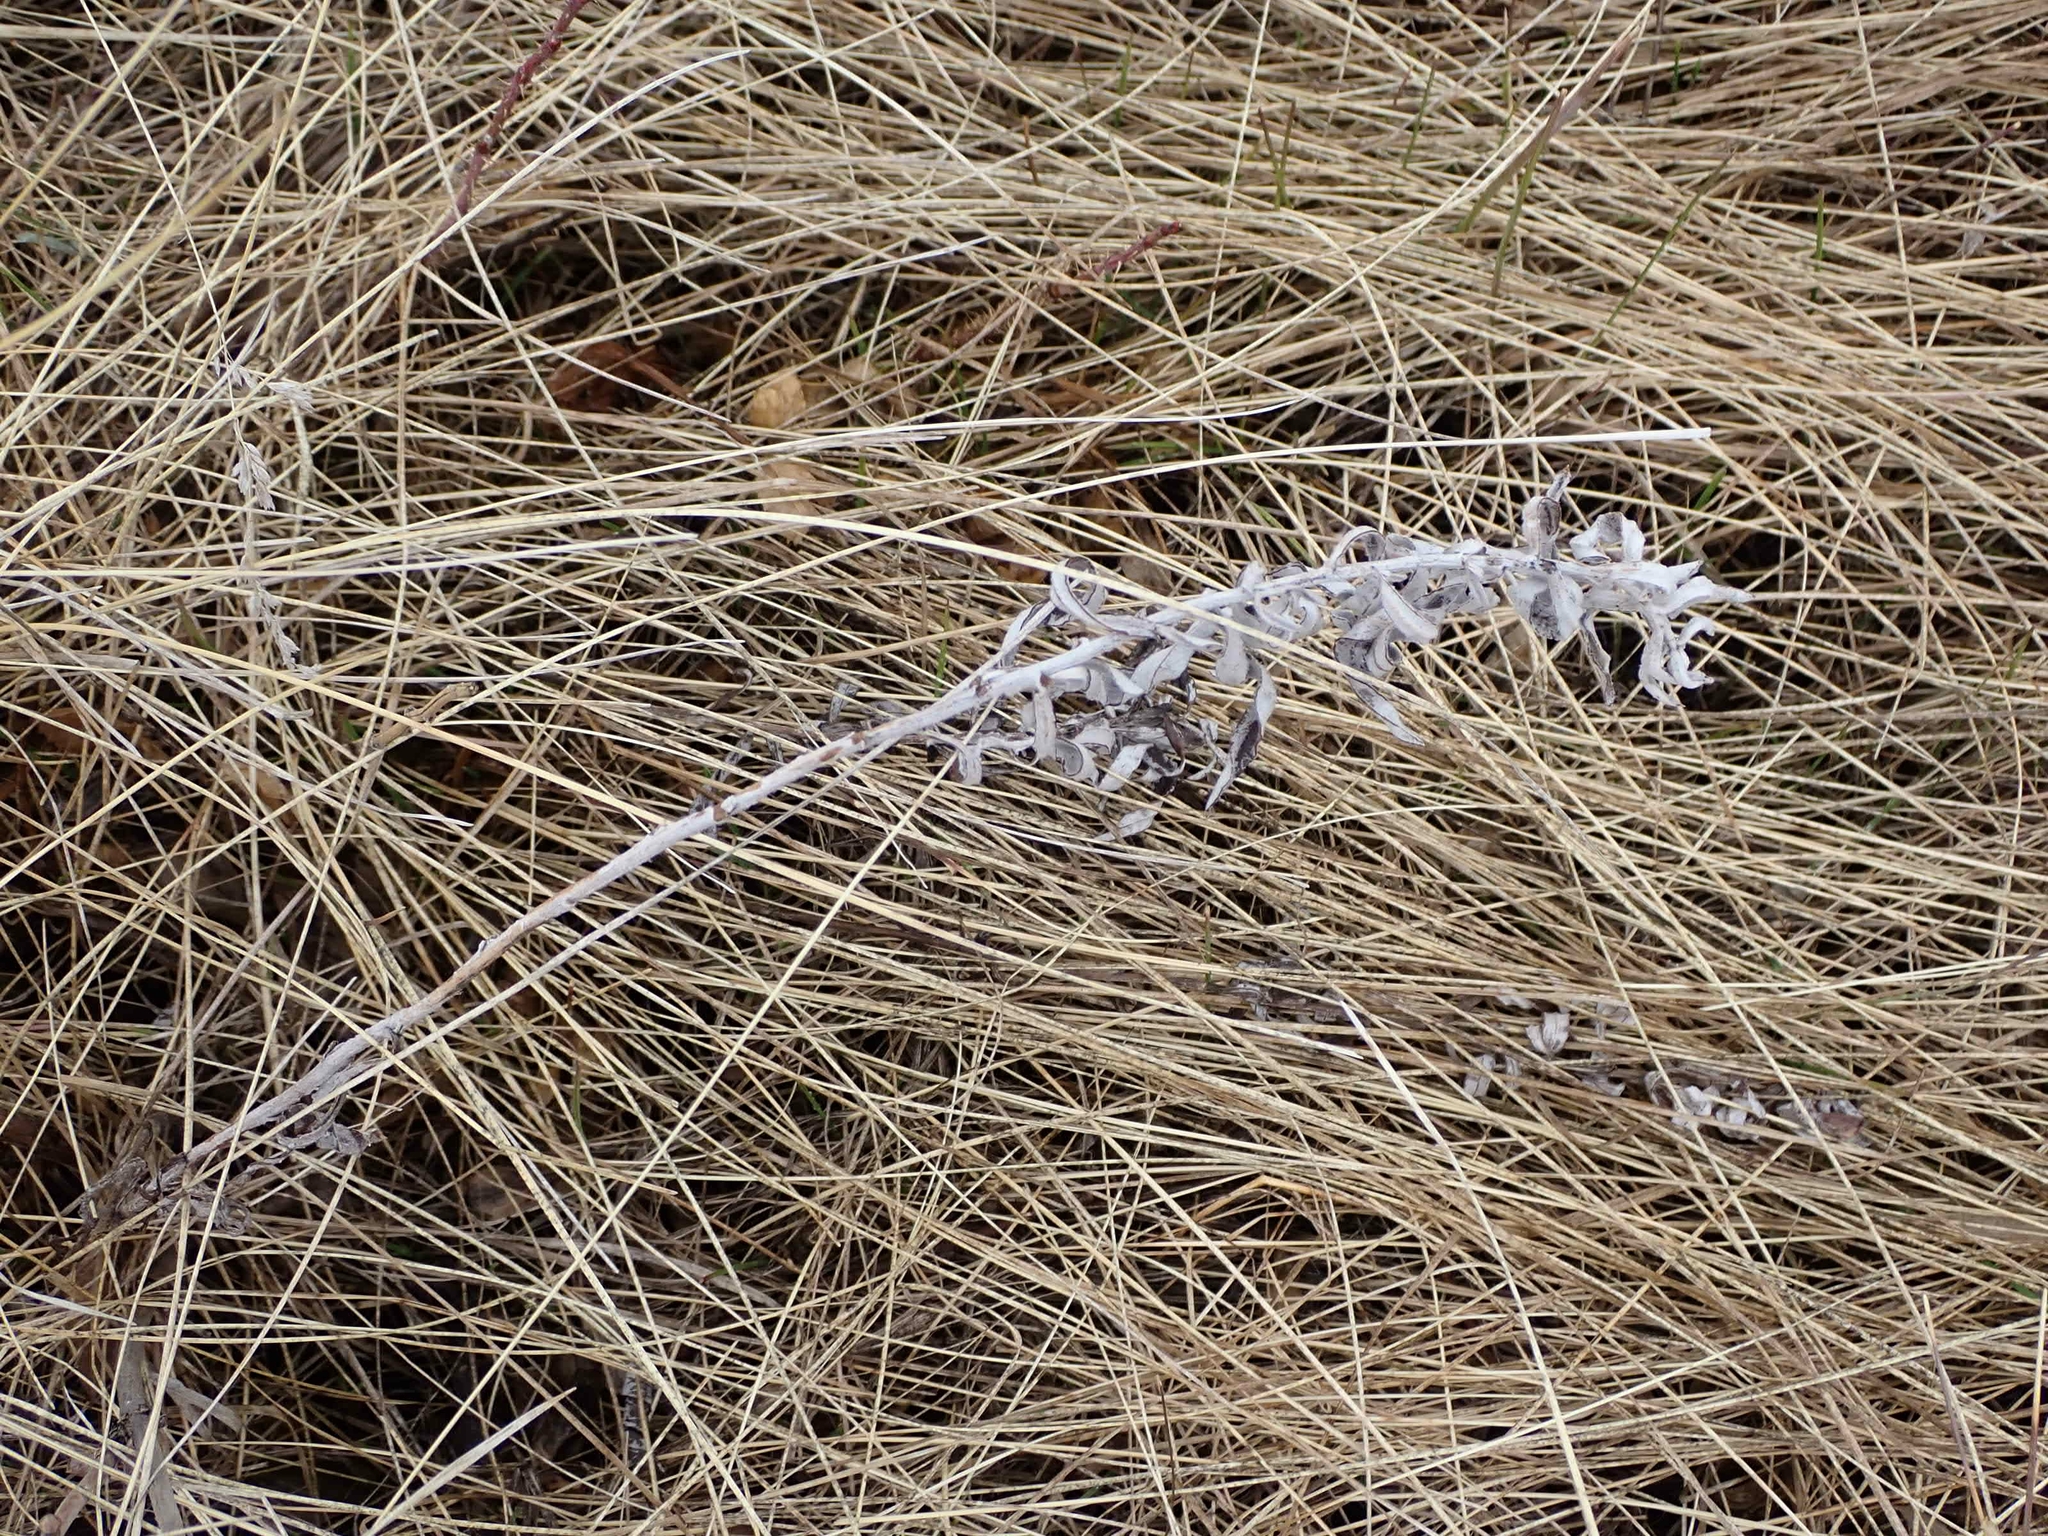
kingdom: Plantae
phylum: Tracheophyta
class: Magnoliopsida
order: Asterales
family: Asteraceae
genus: Artemisia
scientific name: Artemisia ludoviciana
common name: Western mugwort
